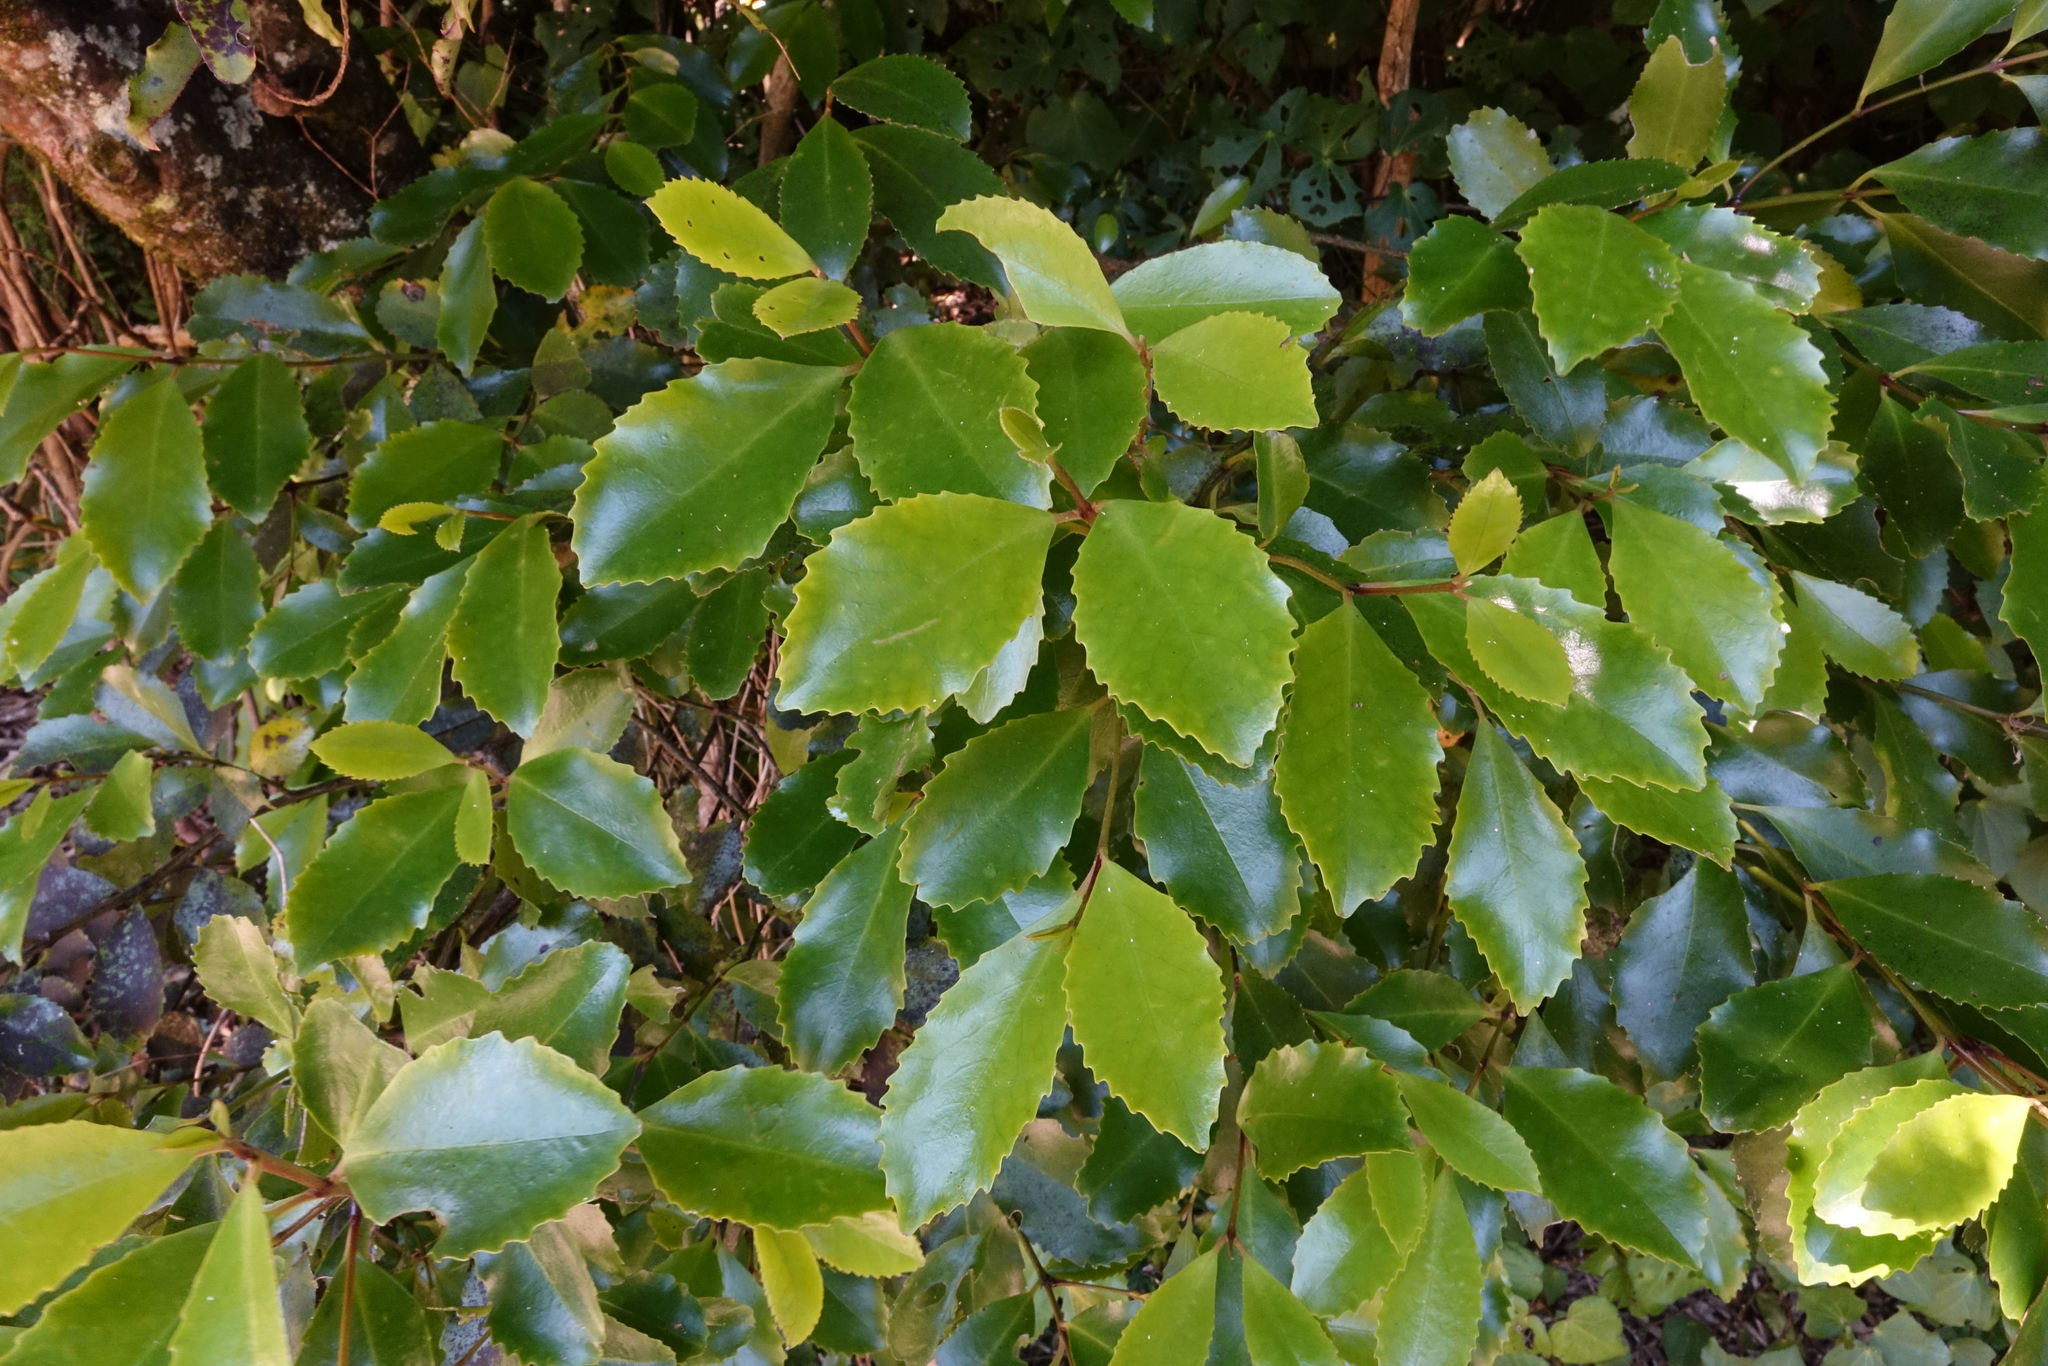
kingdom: Plantae
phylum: Tracheophyta
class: Magnoliopsida
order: Laurales
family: Atherospermataceae
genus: Laurelia
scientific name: Laurelia novae-zelandiae
